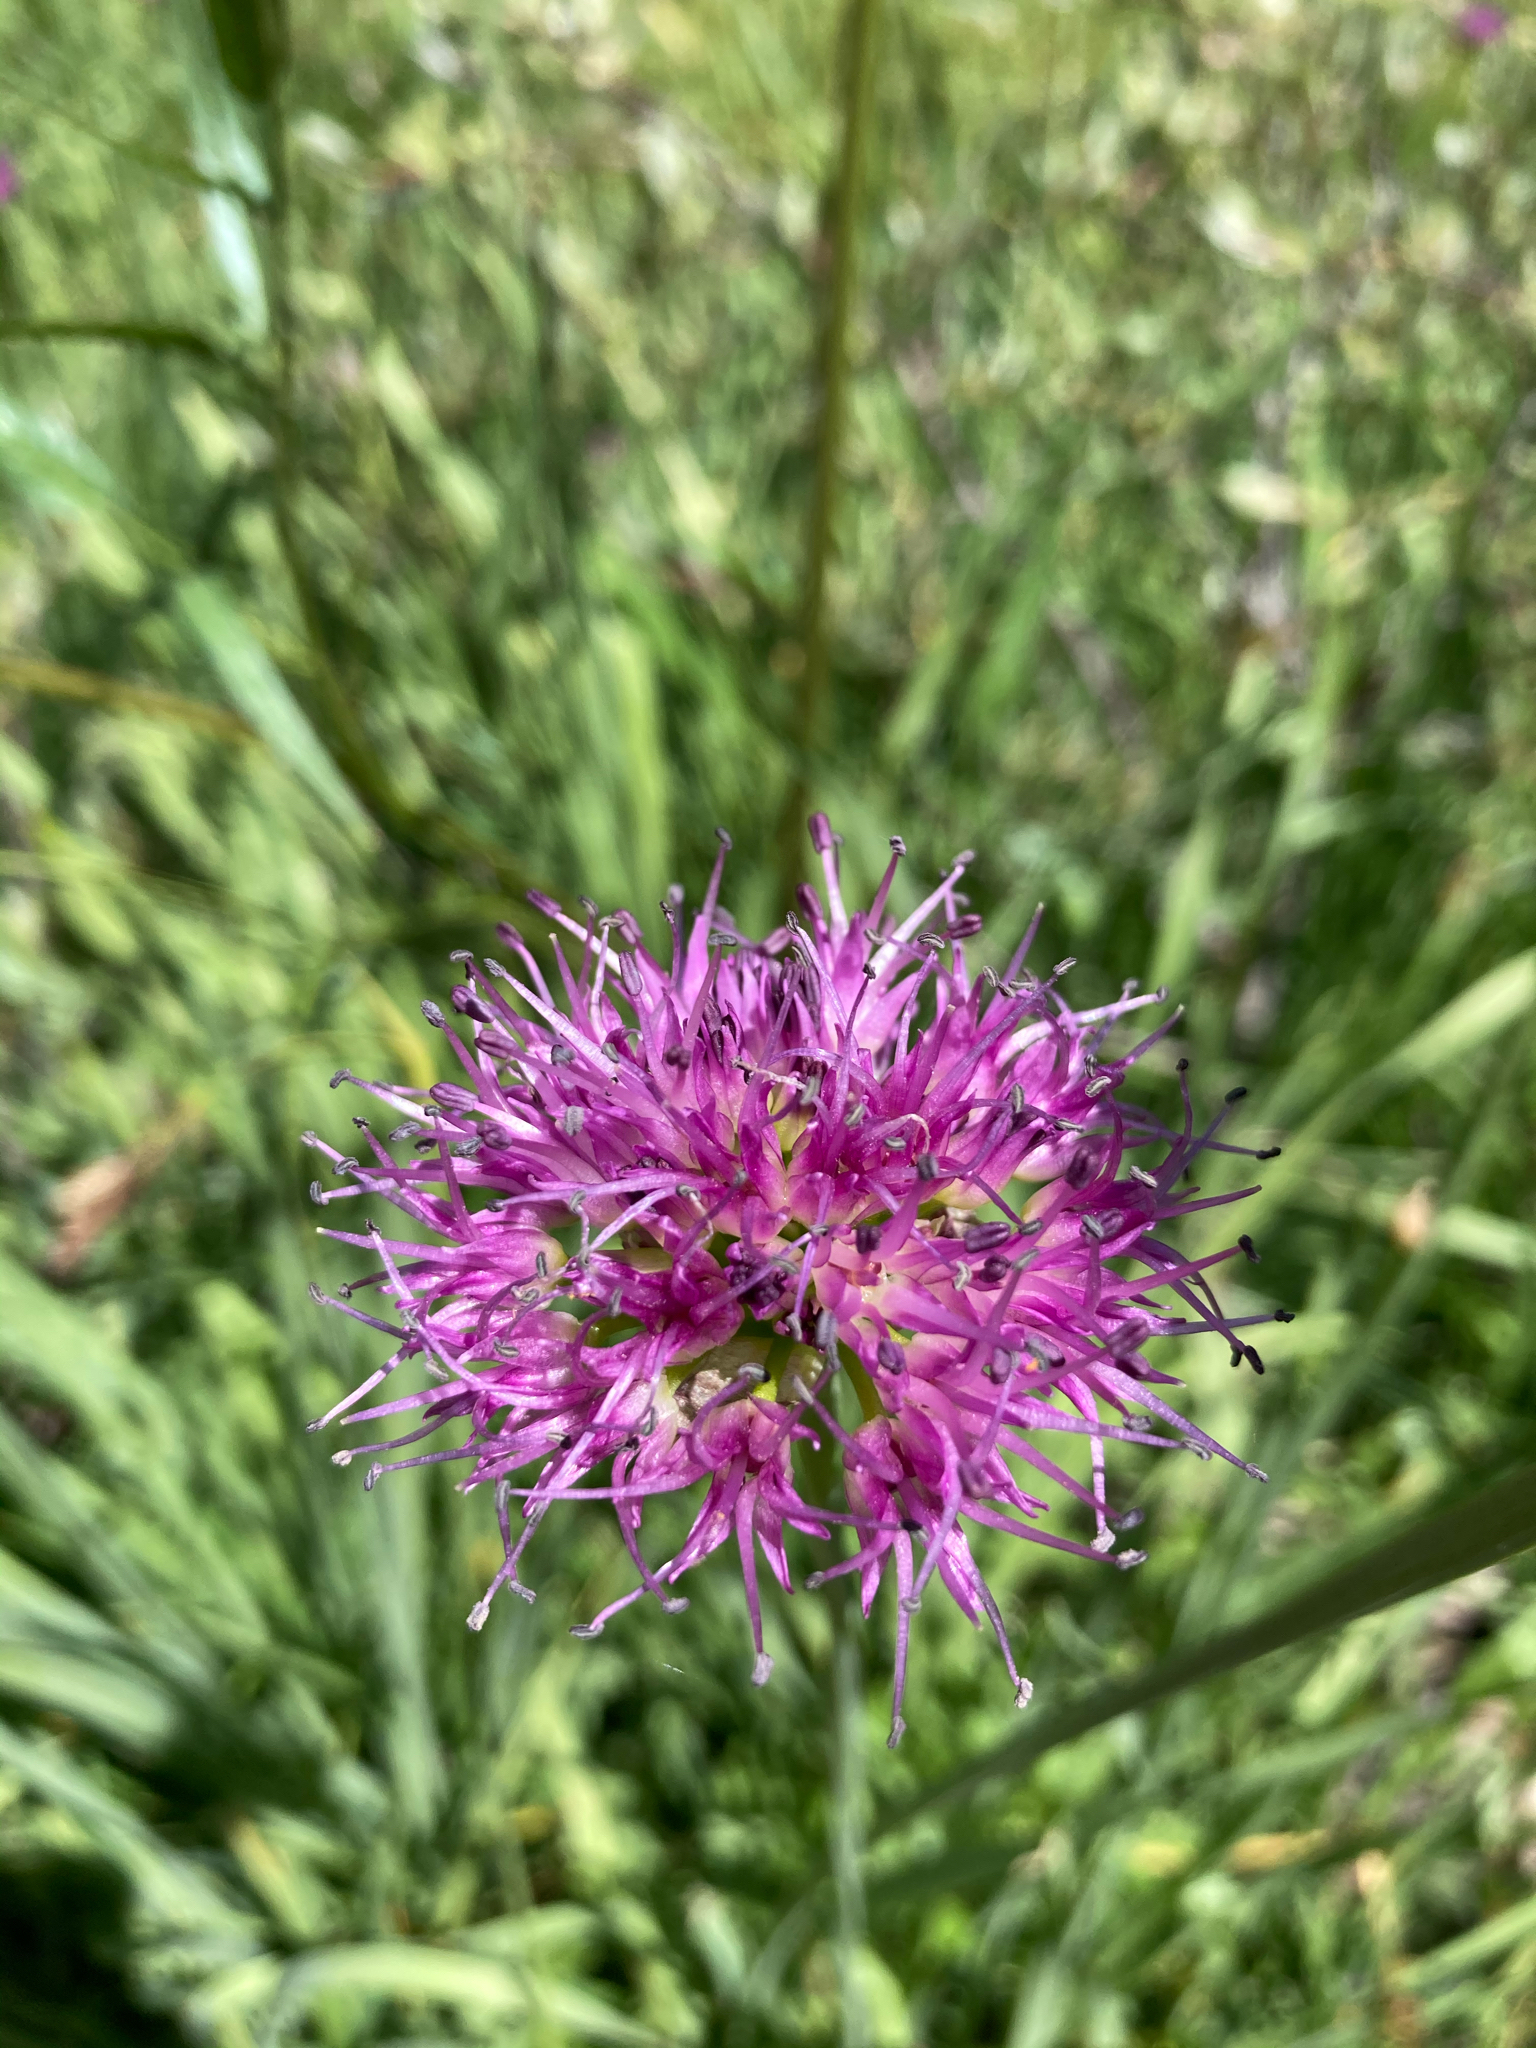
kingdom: Plantae
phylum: Tracheophyta
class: Liliopsida
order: Asparagales
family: Amaryllidaceae
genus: Allium
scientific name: Allium validum
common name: Pacific mountain onion
